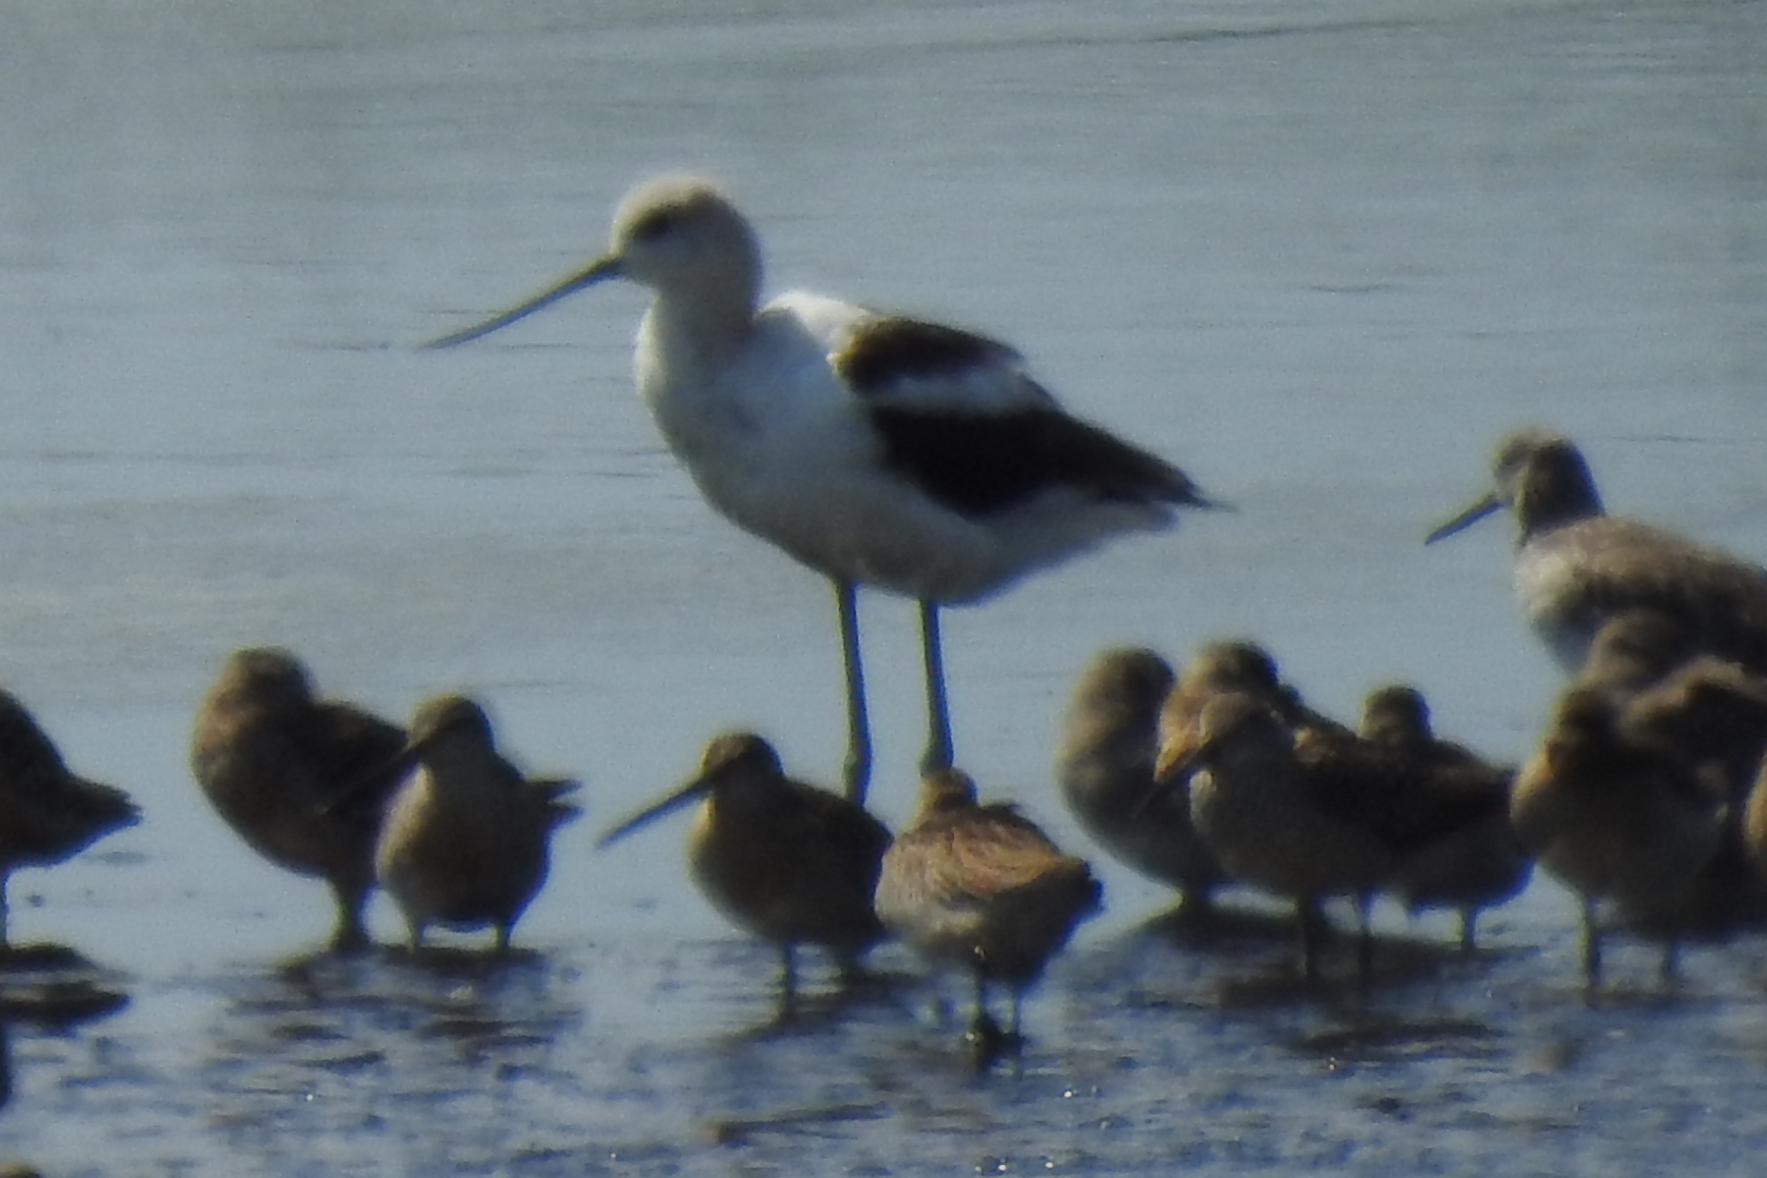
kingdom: Animalia
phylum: Chordata
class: Aves
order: Charadriiformes
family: Recurvirostridae
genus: Recurvirostra
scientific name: Recurvirostra americana
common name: American avocet
